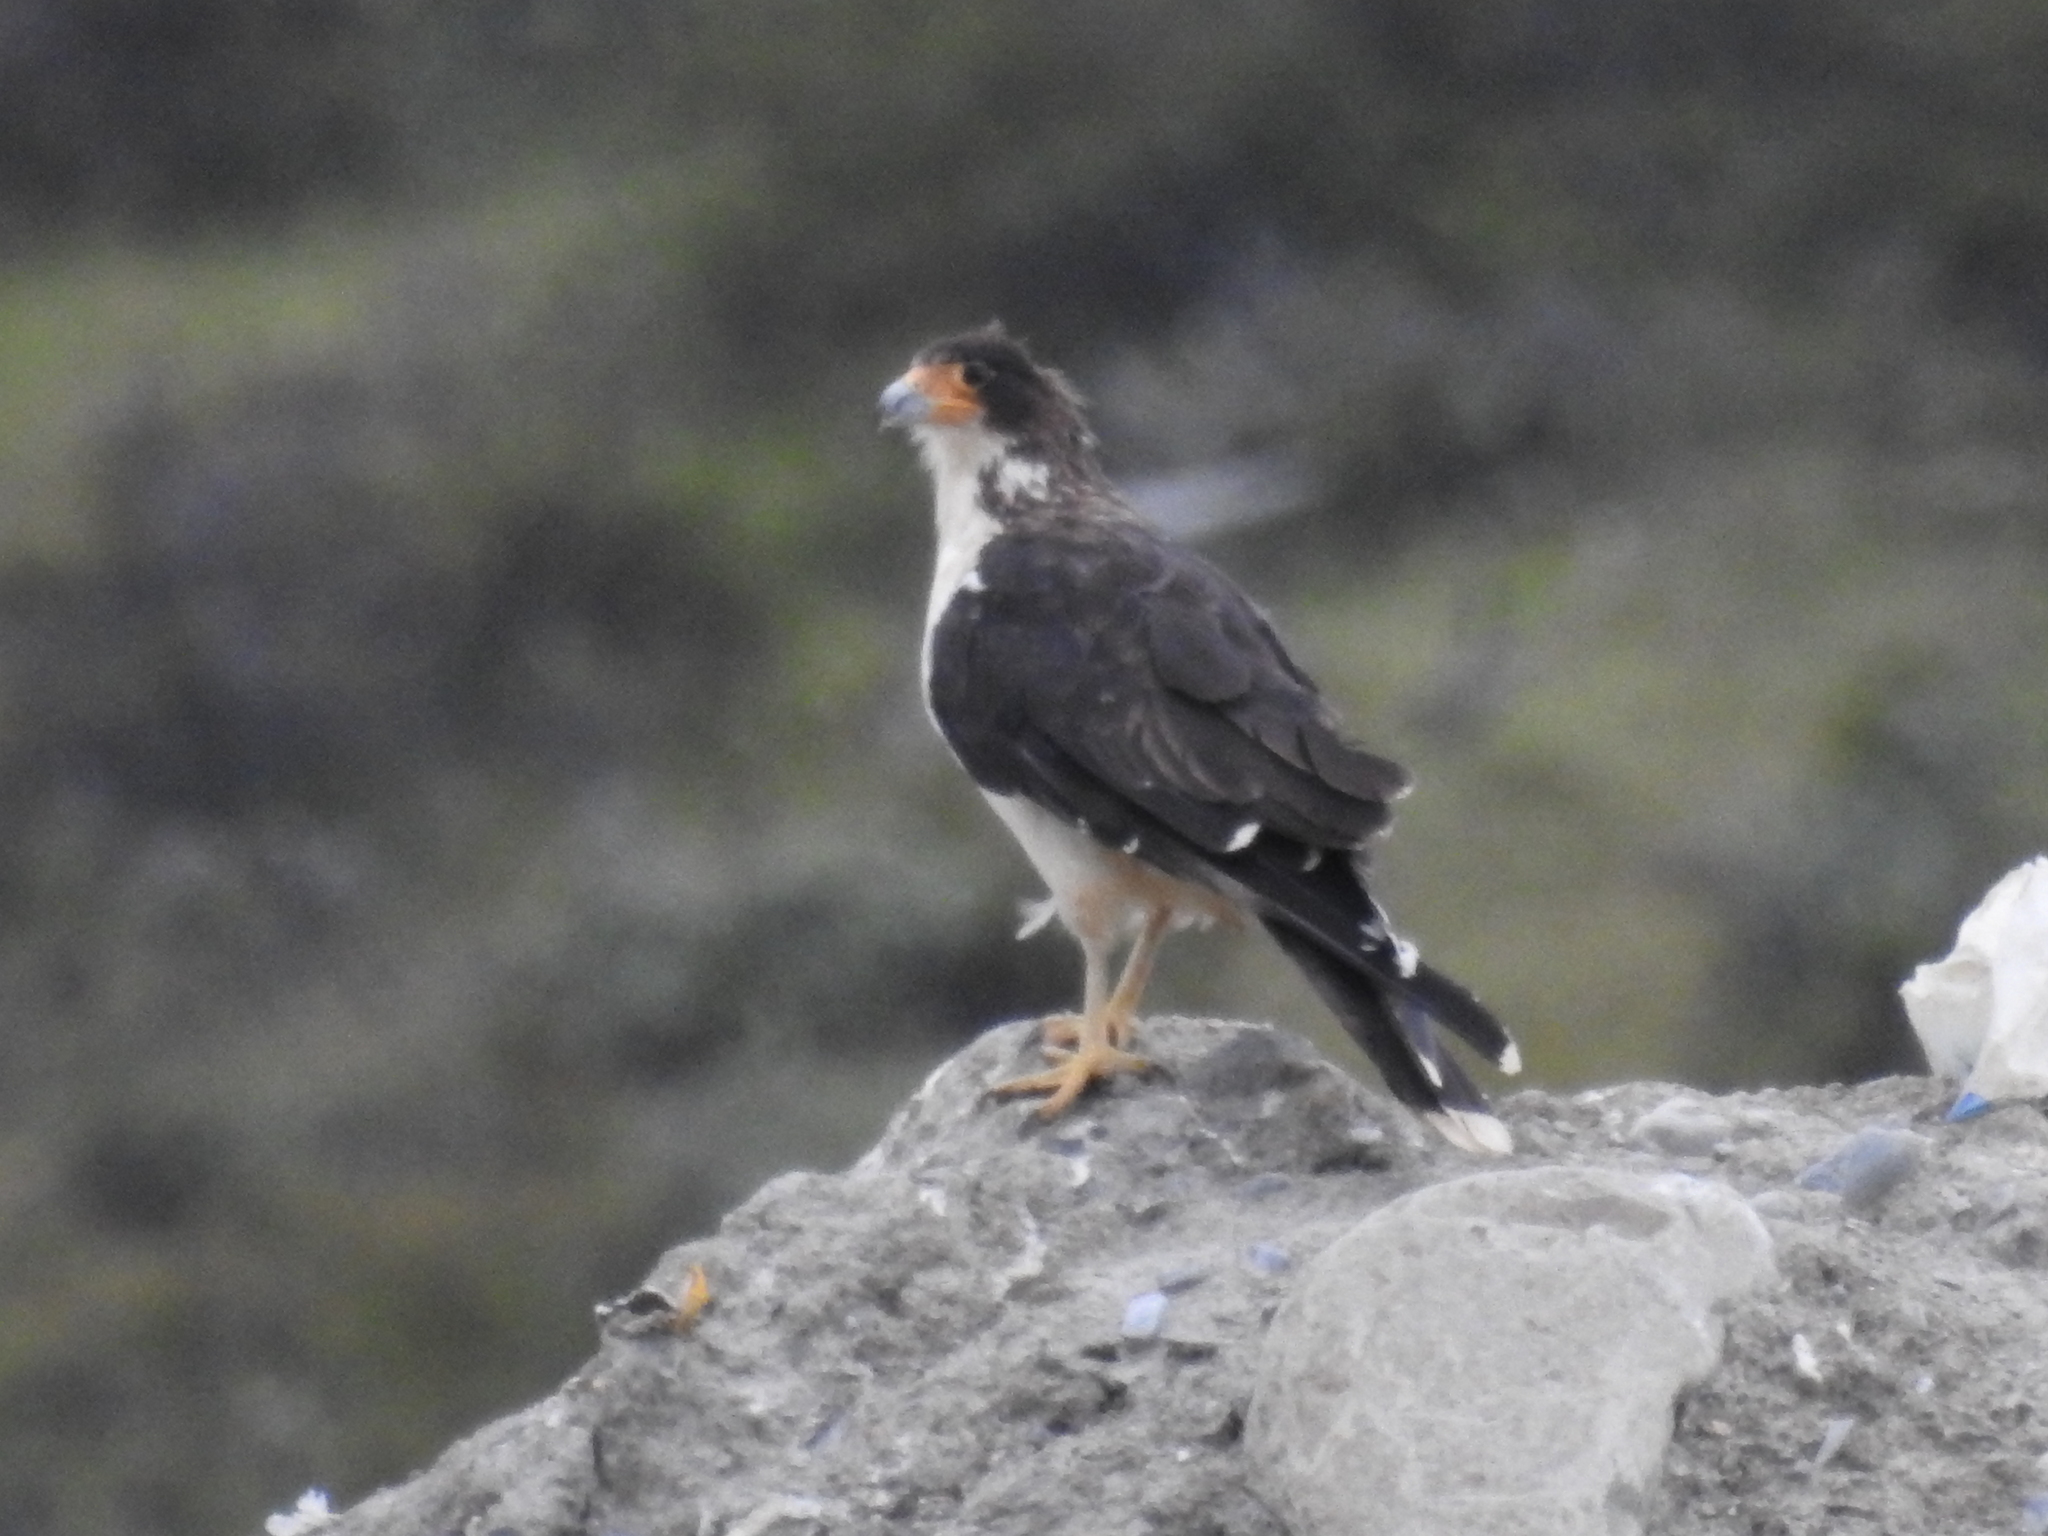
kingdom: Animalia
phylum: Chordata
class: Aves
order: Falconiformes
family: Falconidae
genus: Daptrius
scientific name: Daptrius
